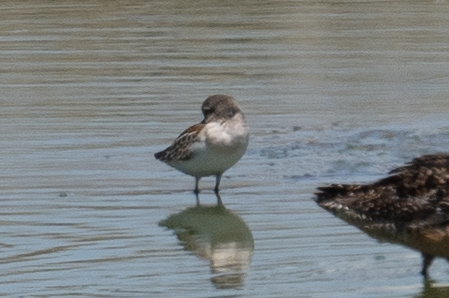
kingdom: Animalia
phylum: Chordata
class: Aves
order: Charadriiformes
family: Scolopacidae
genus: Calidris
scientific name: Calidris mauri
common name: Western sandpiper
